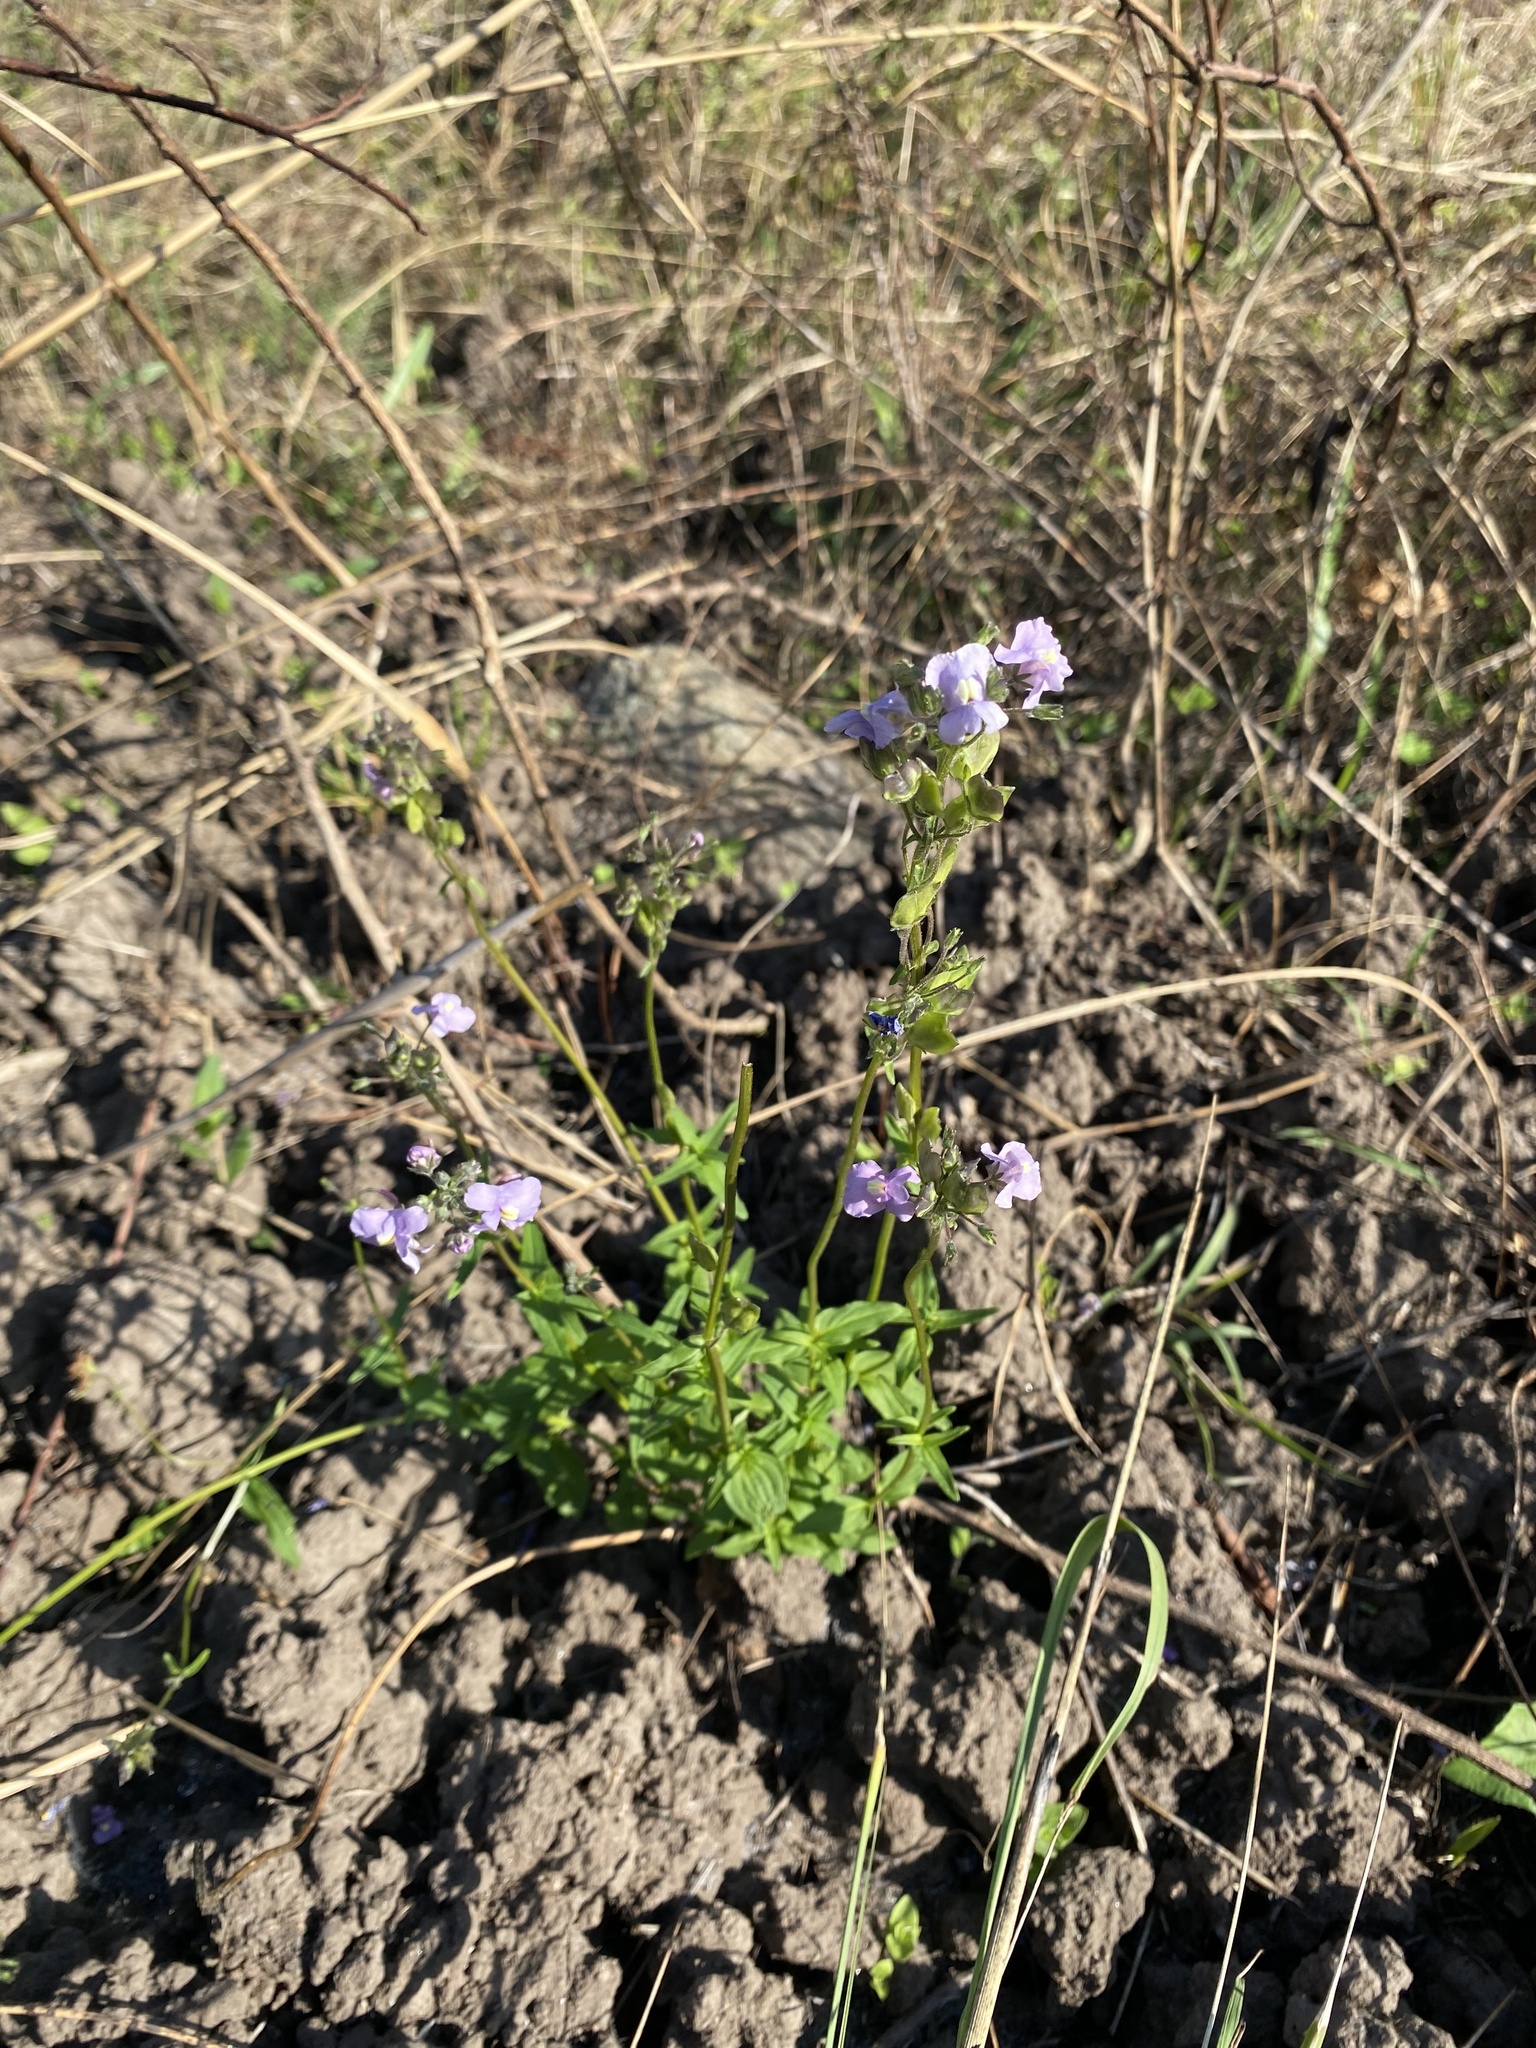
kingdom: Plantae
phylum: Tracheophyta
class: Magnoliopsida
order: Lamiales
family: Scrophulariaceae
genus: Nemesia
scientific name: Nemesia denticulata
